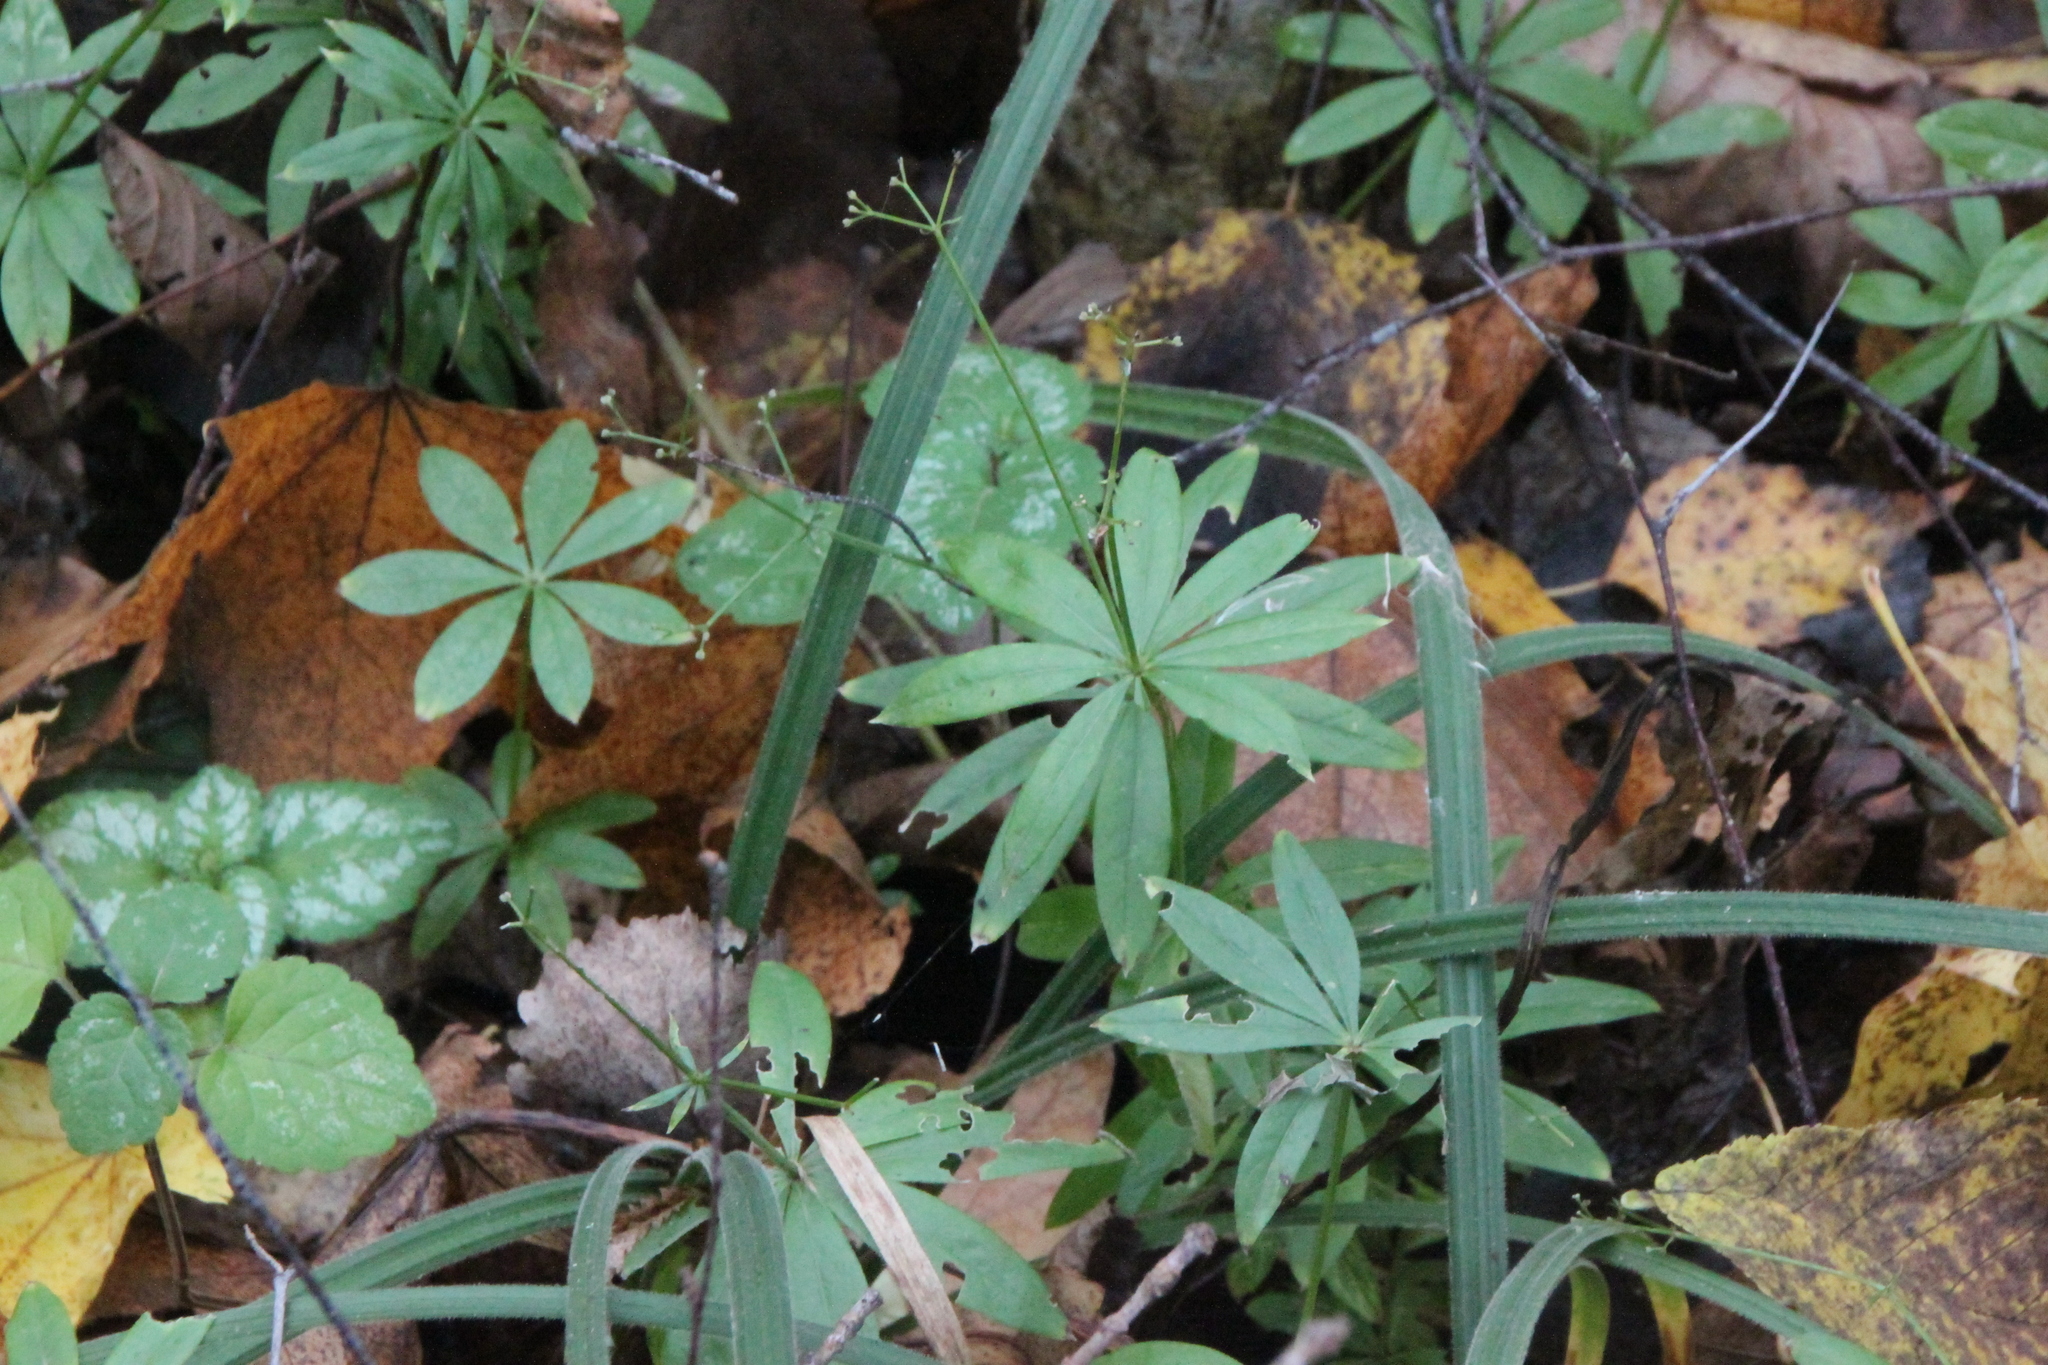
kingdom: Plantae
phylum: Tracheophyta
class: Magnoliopsida
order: Gentianales
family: Rubiaceae
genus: Galium
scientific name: Galium odoratum
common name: Sweet woodruff
